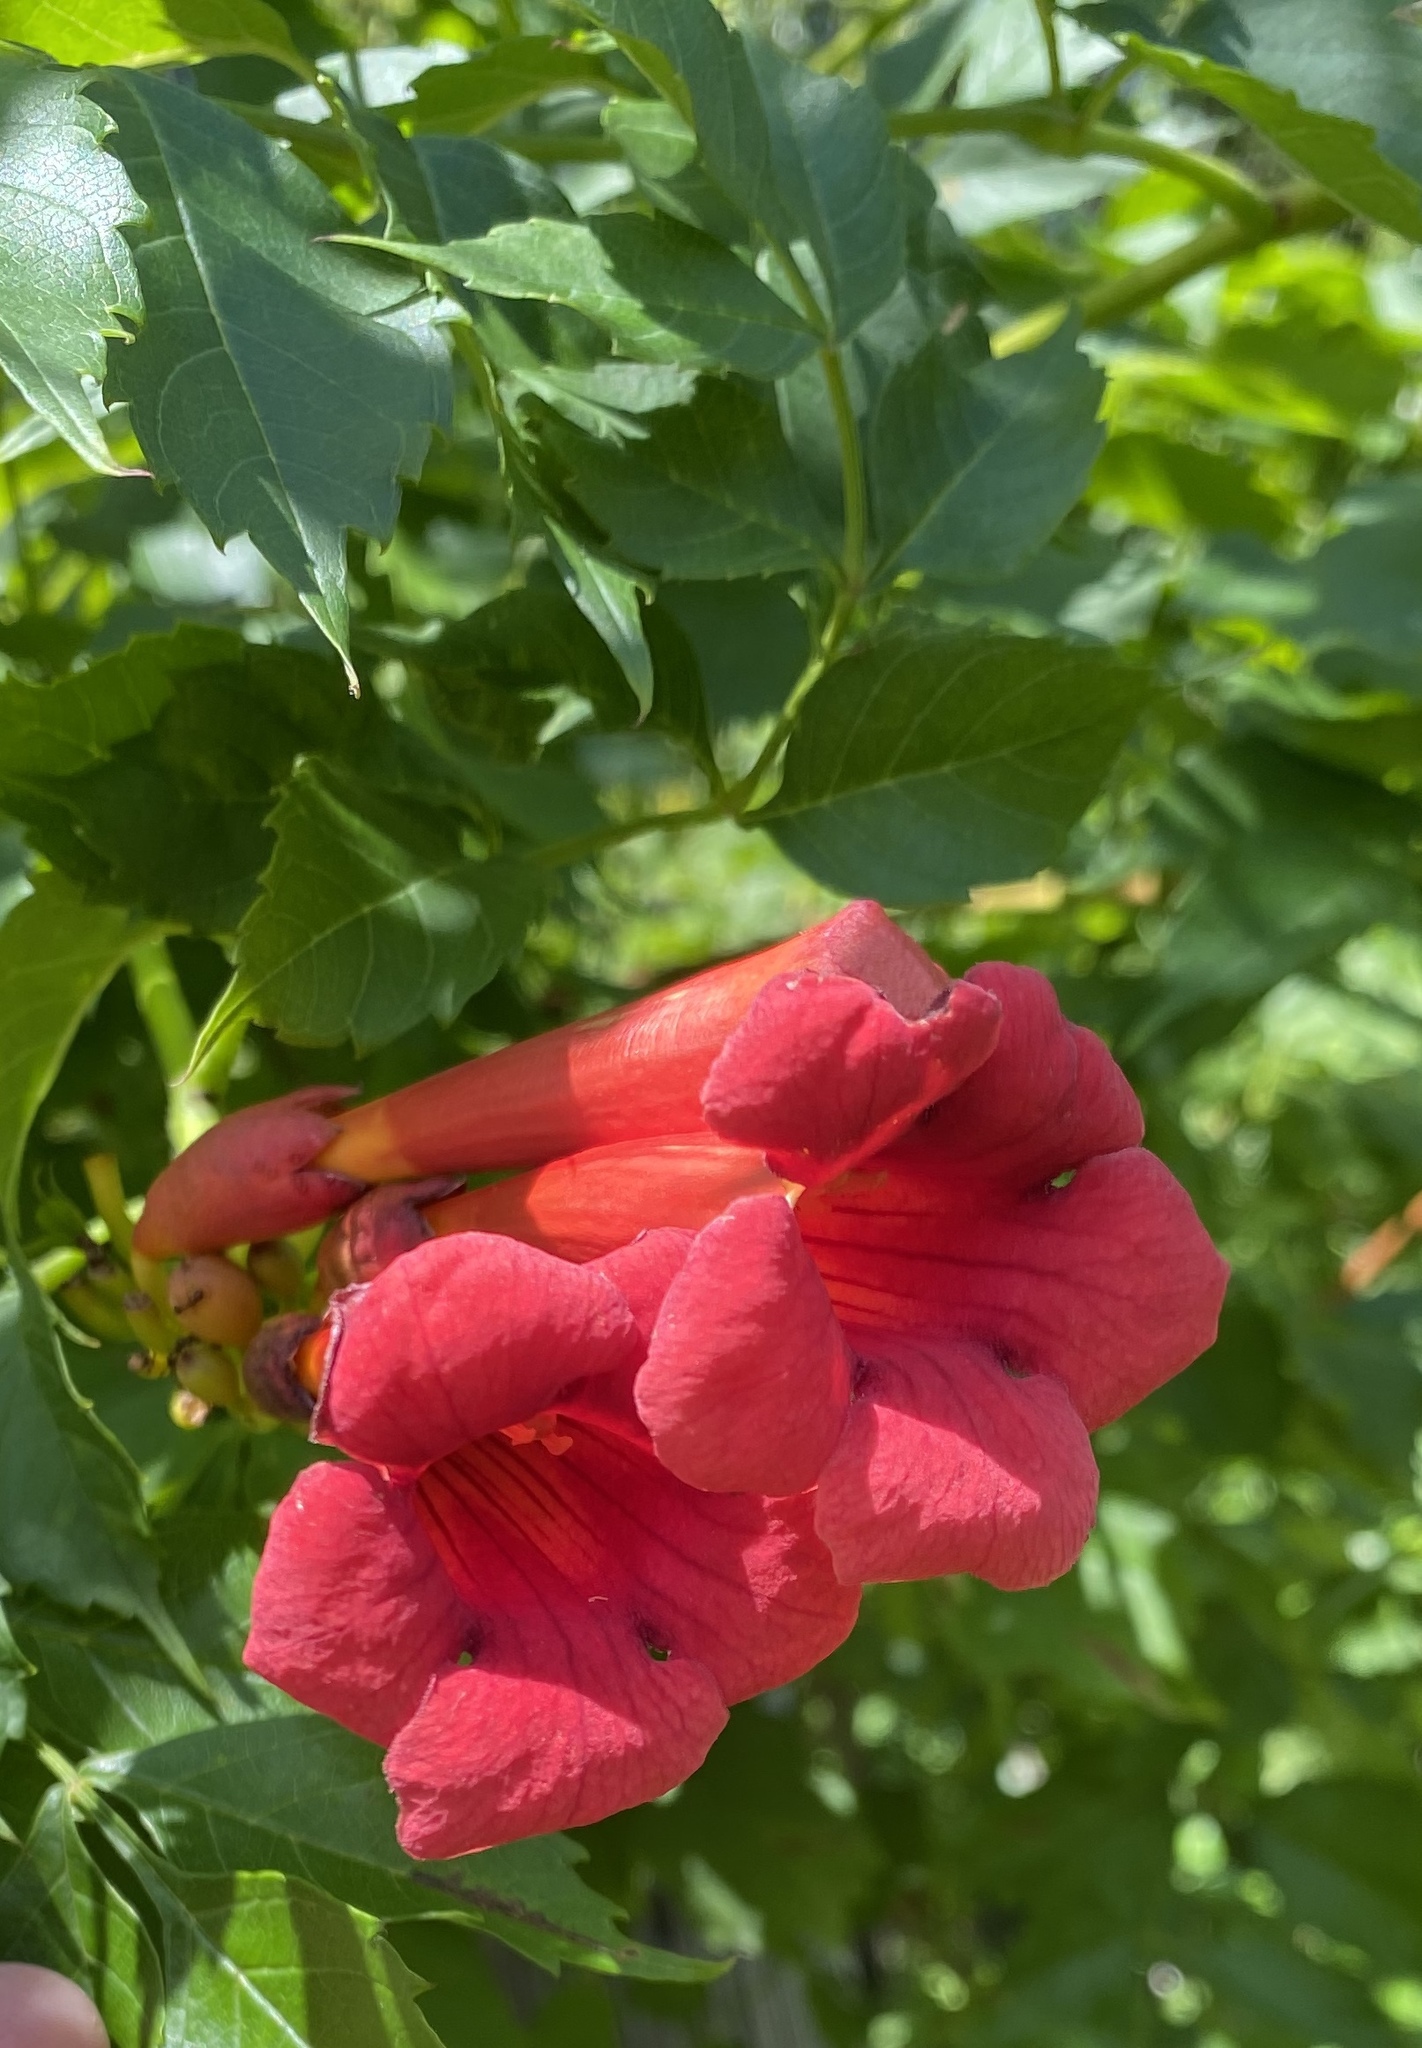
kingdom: Plantae
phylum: Tracheophyta
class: Magnoliopsida
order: Lamiales
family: Bignoniaceae
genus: Campsis
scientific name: Campsis radicans
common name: Trumpet-creeper
